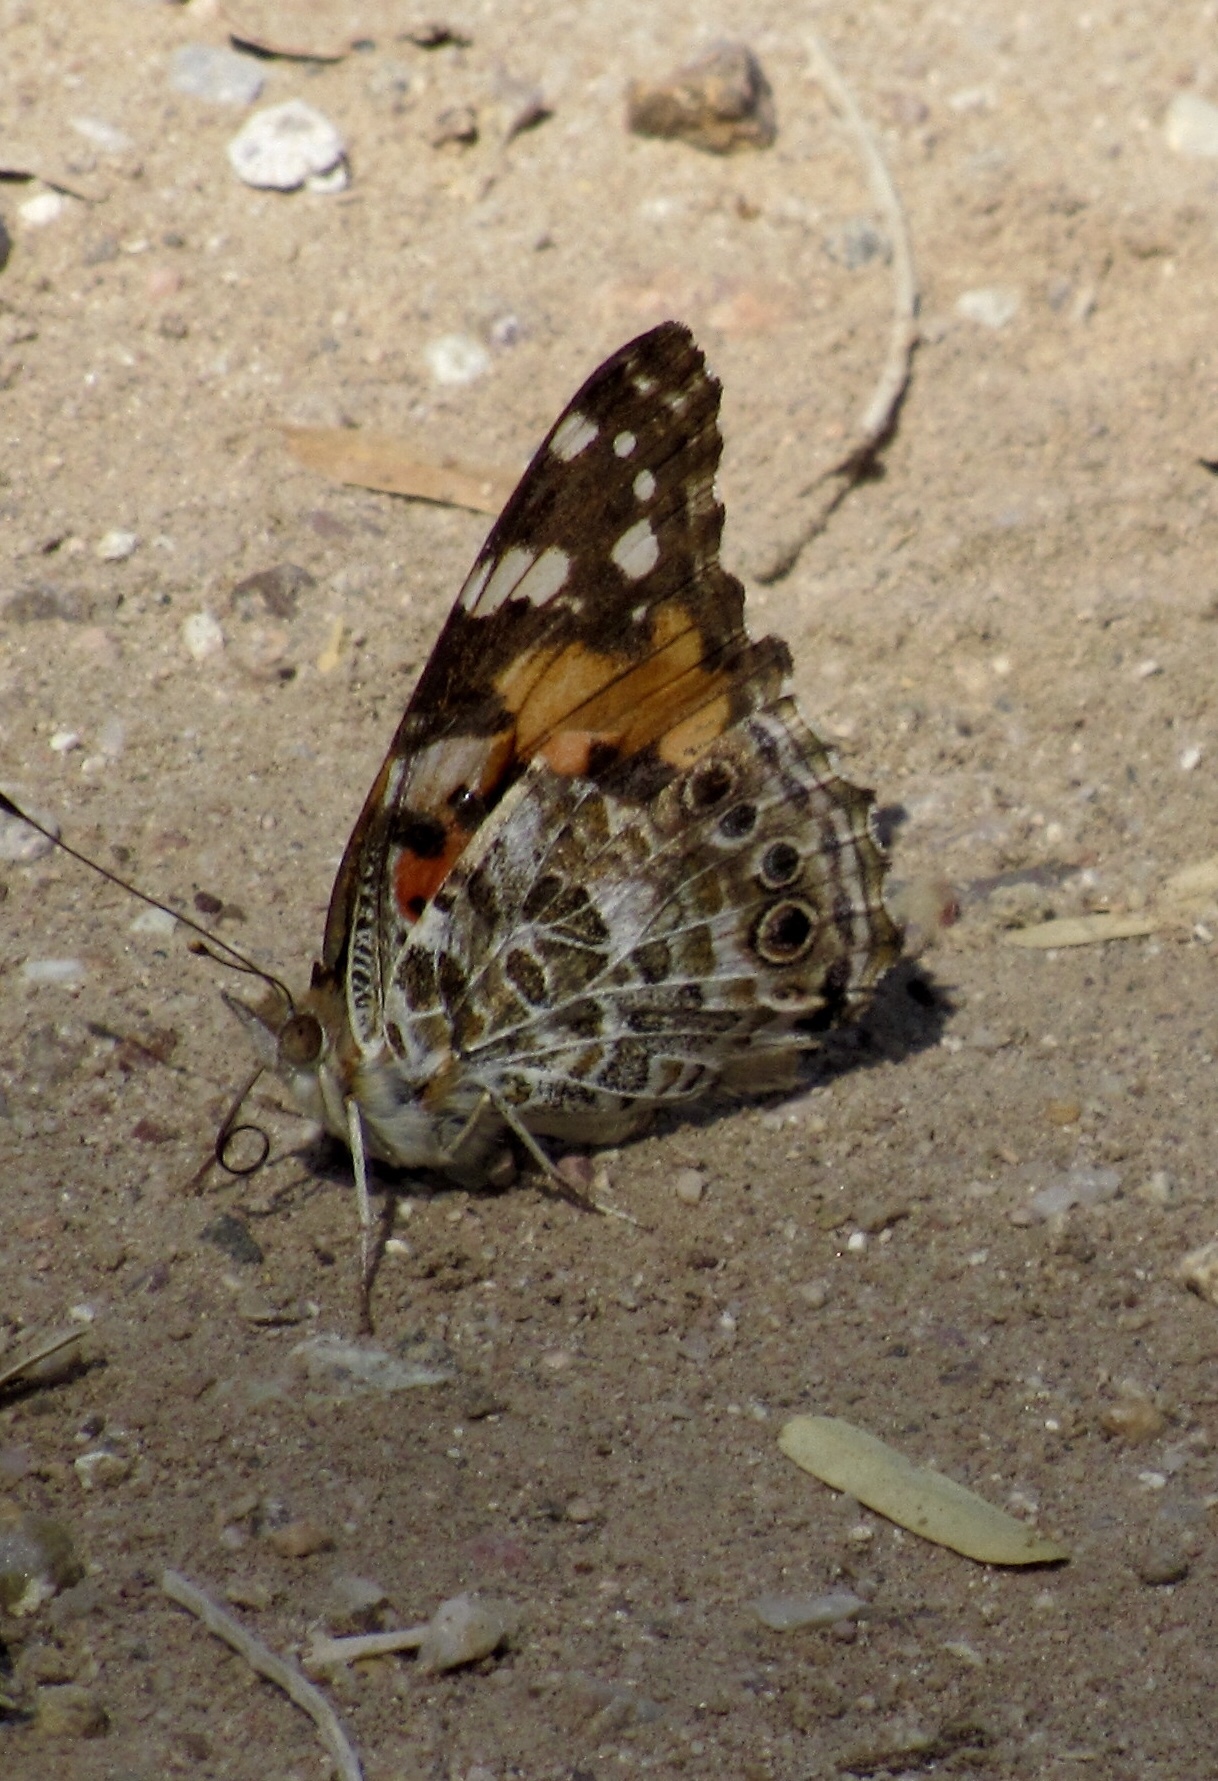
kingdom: Animalia
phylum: Arthropoda
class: Insecta
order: Lepidoptera
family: Nymphalidae
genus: Vanessa
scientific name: Vanessa cardui
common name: Painted lady
